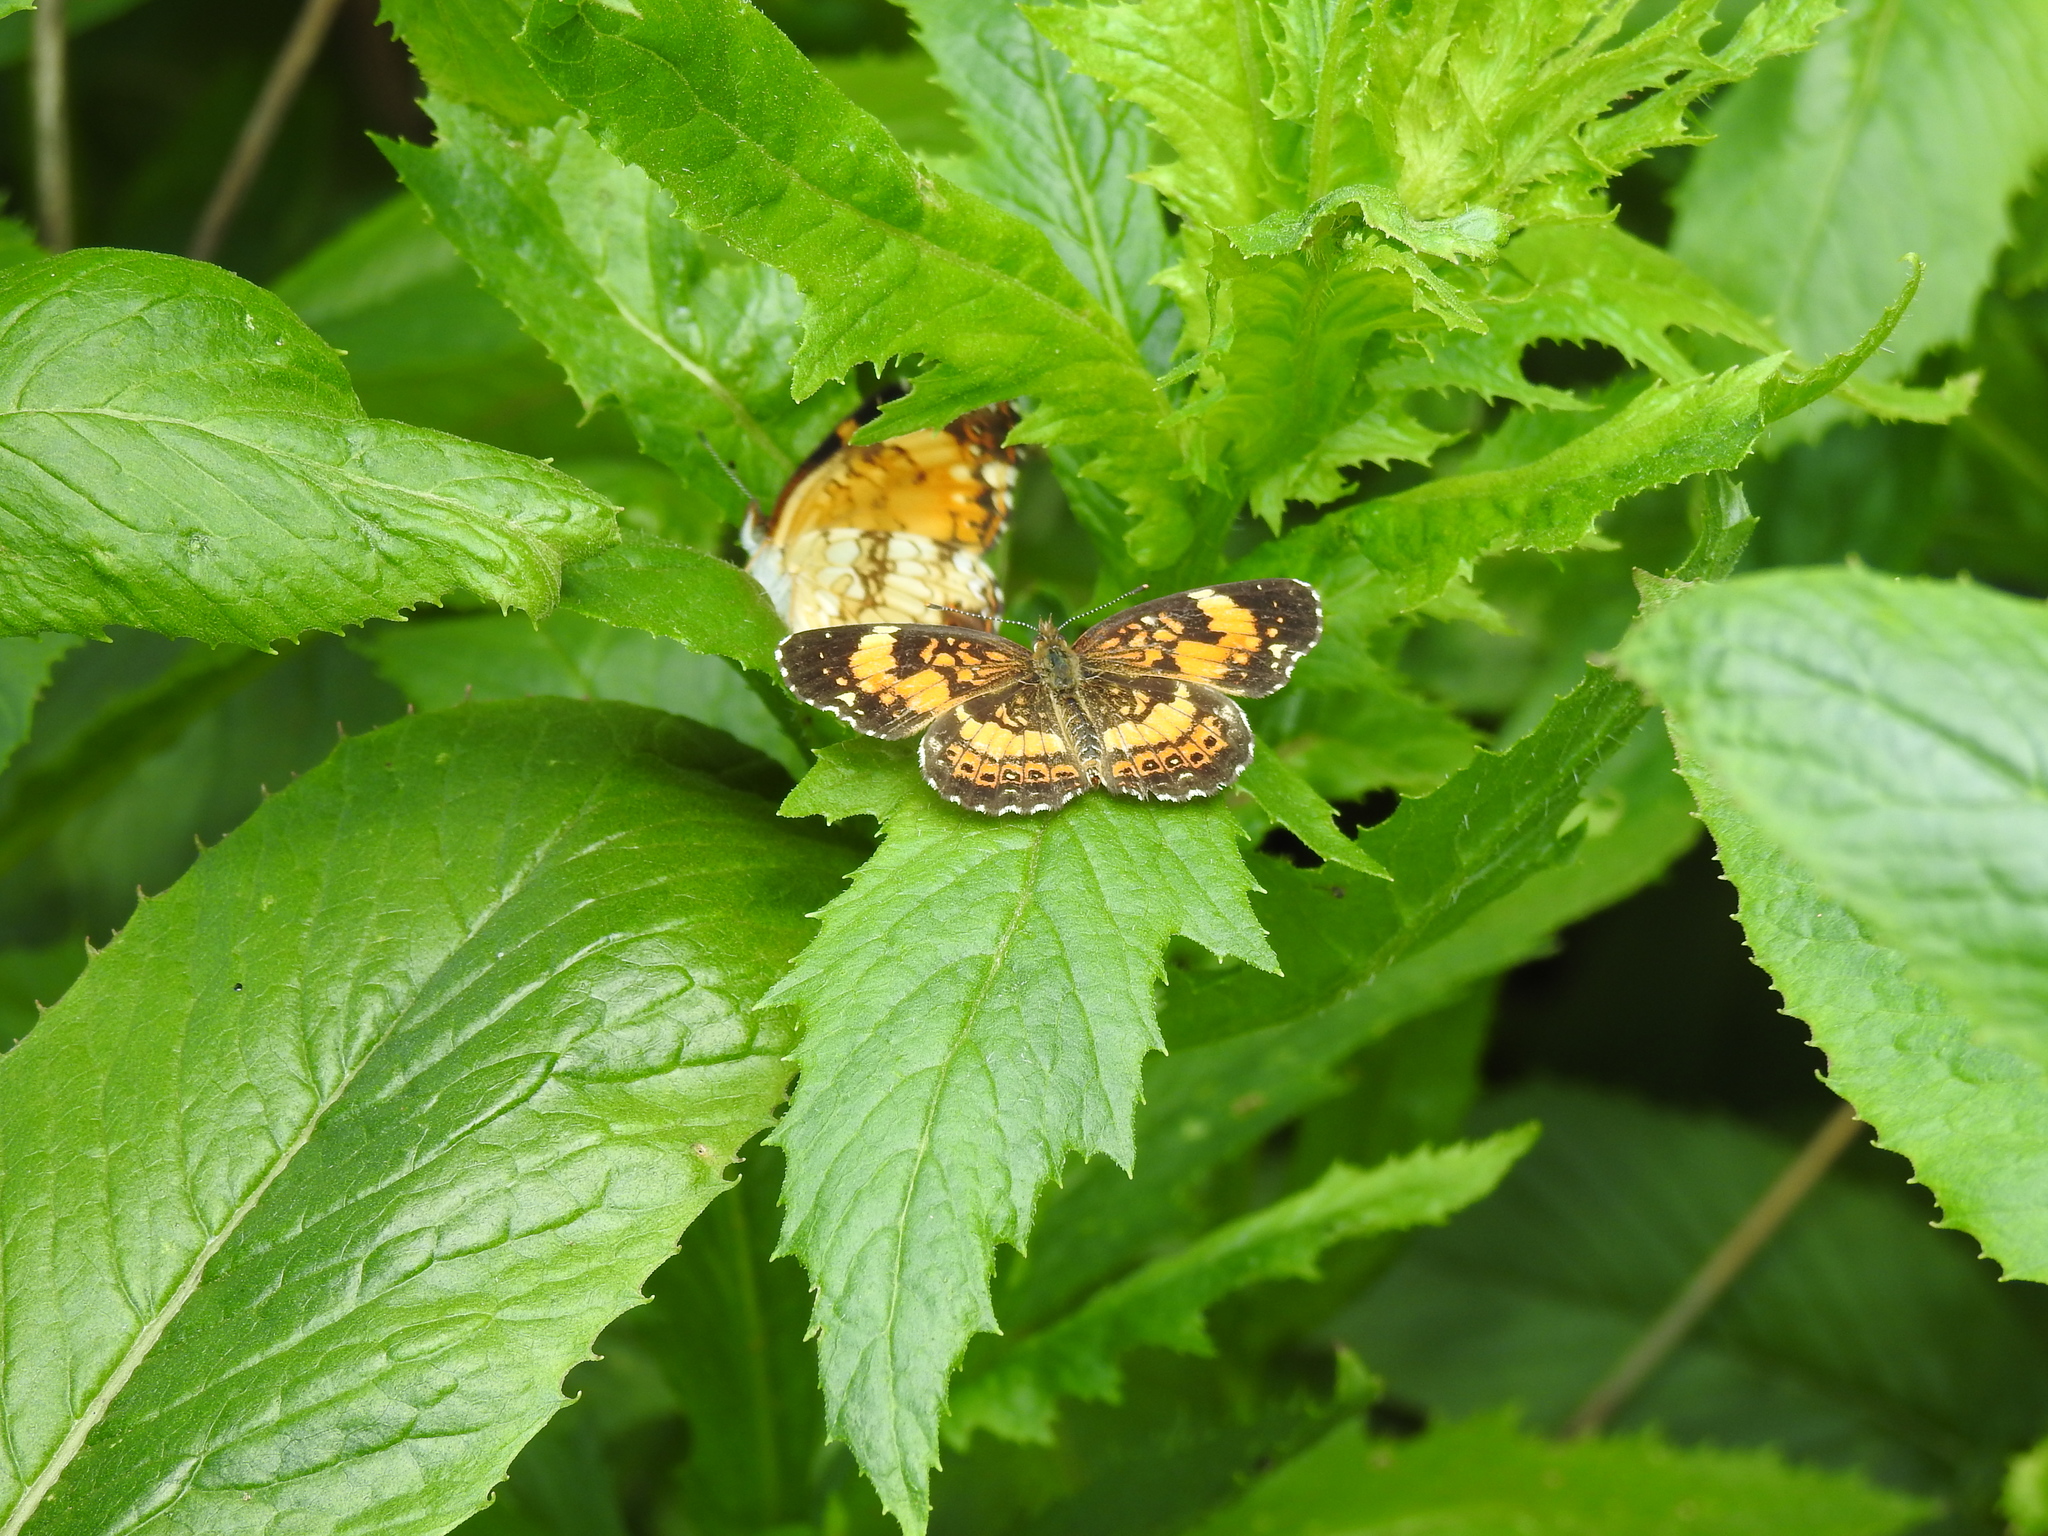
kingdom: Animalia
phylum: Arthropoda
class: Insecta
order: Lepidoptera
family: Nymphalidae
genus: Chlosyne
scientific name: Chlosyne nycteis
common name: Silvery checkerspot
